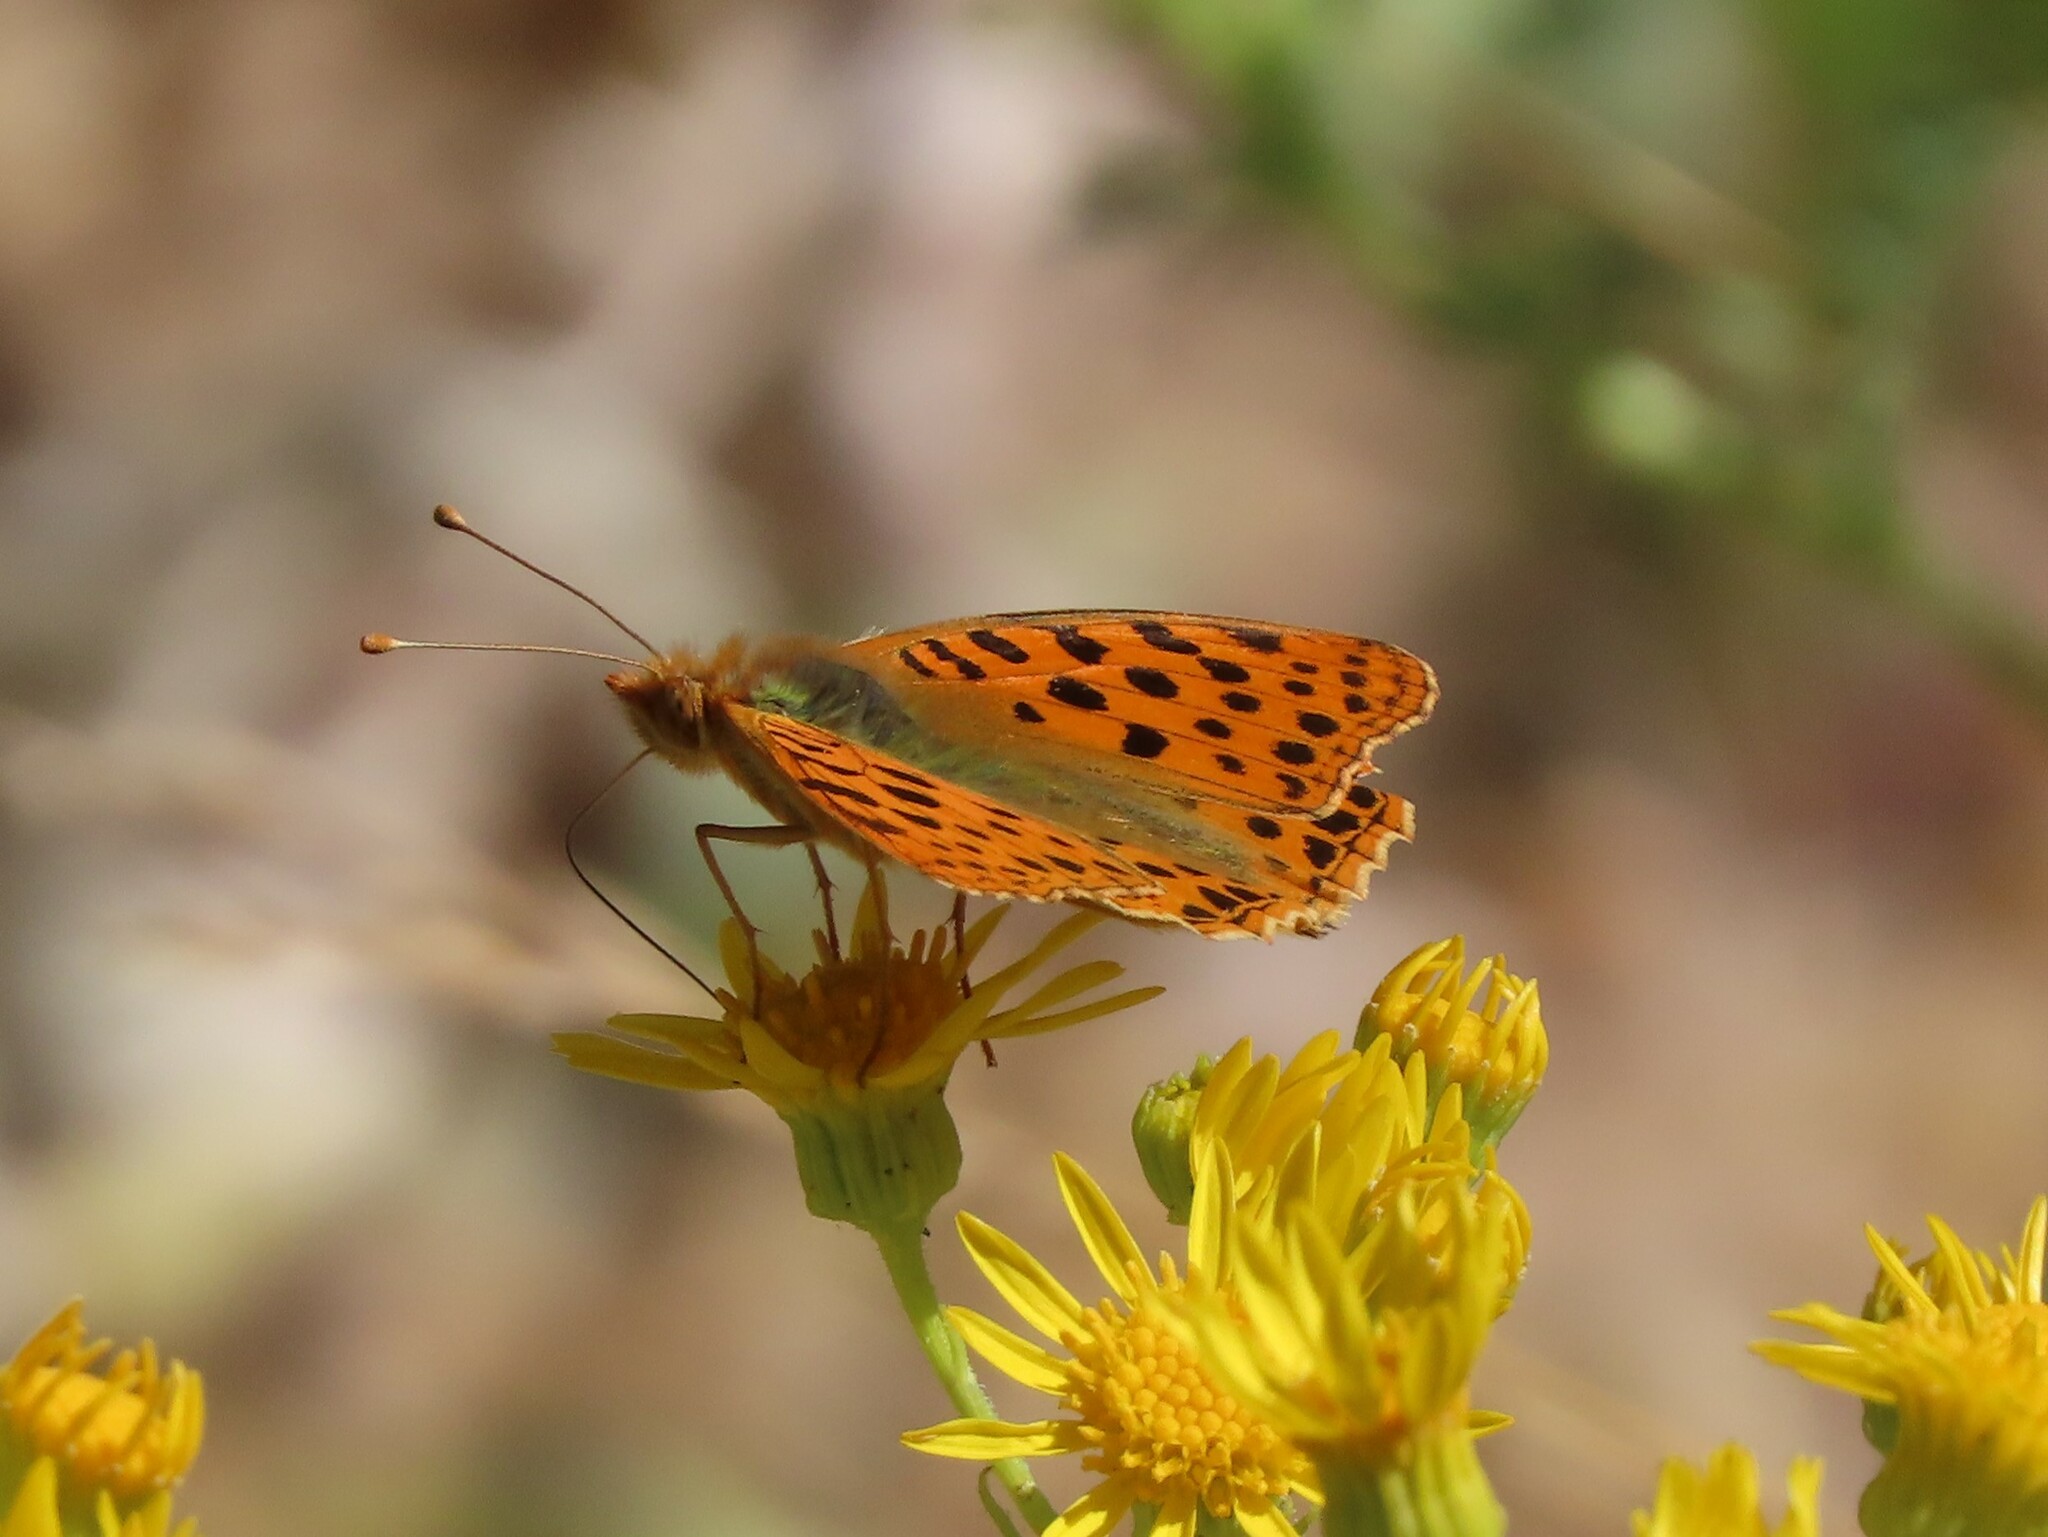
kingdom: Animalia
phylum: Arthropoda
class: Insecta
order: Lepidoptera
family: Nymphalidae
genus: Issoria
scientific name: Issoria lathonia
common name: Queen of spain fritillary
